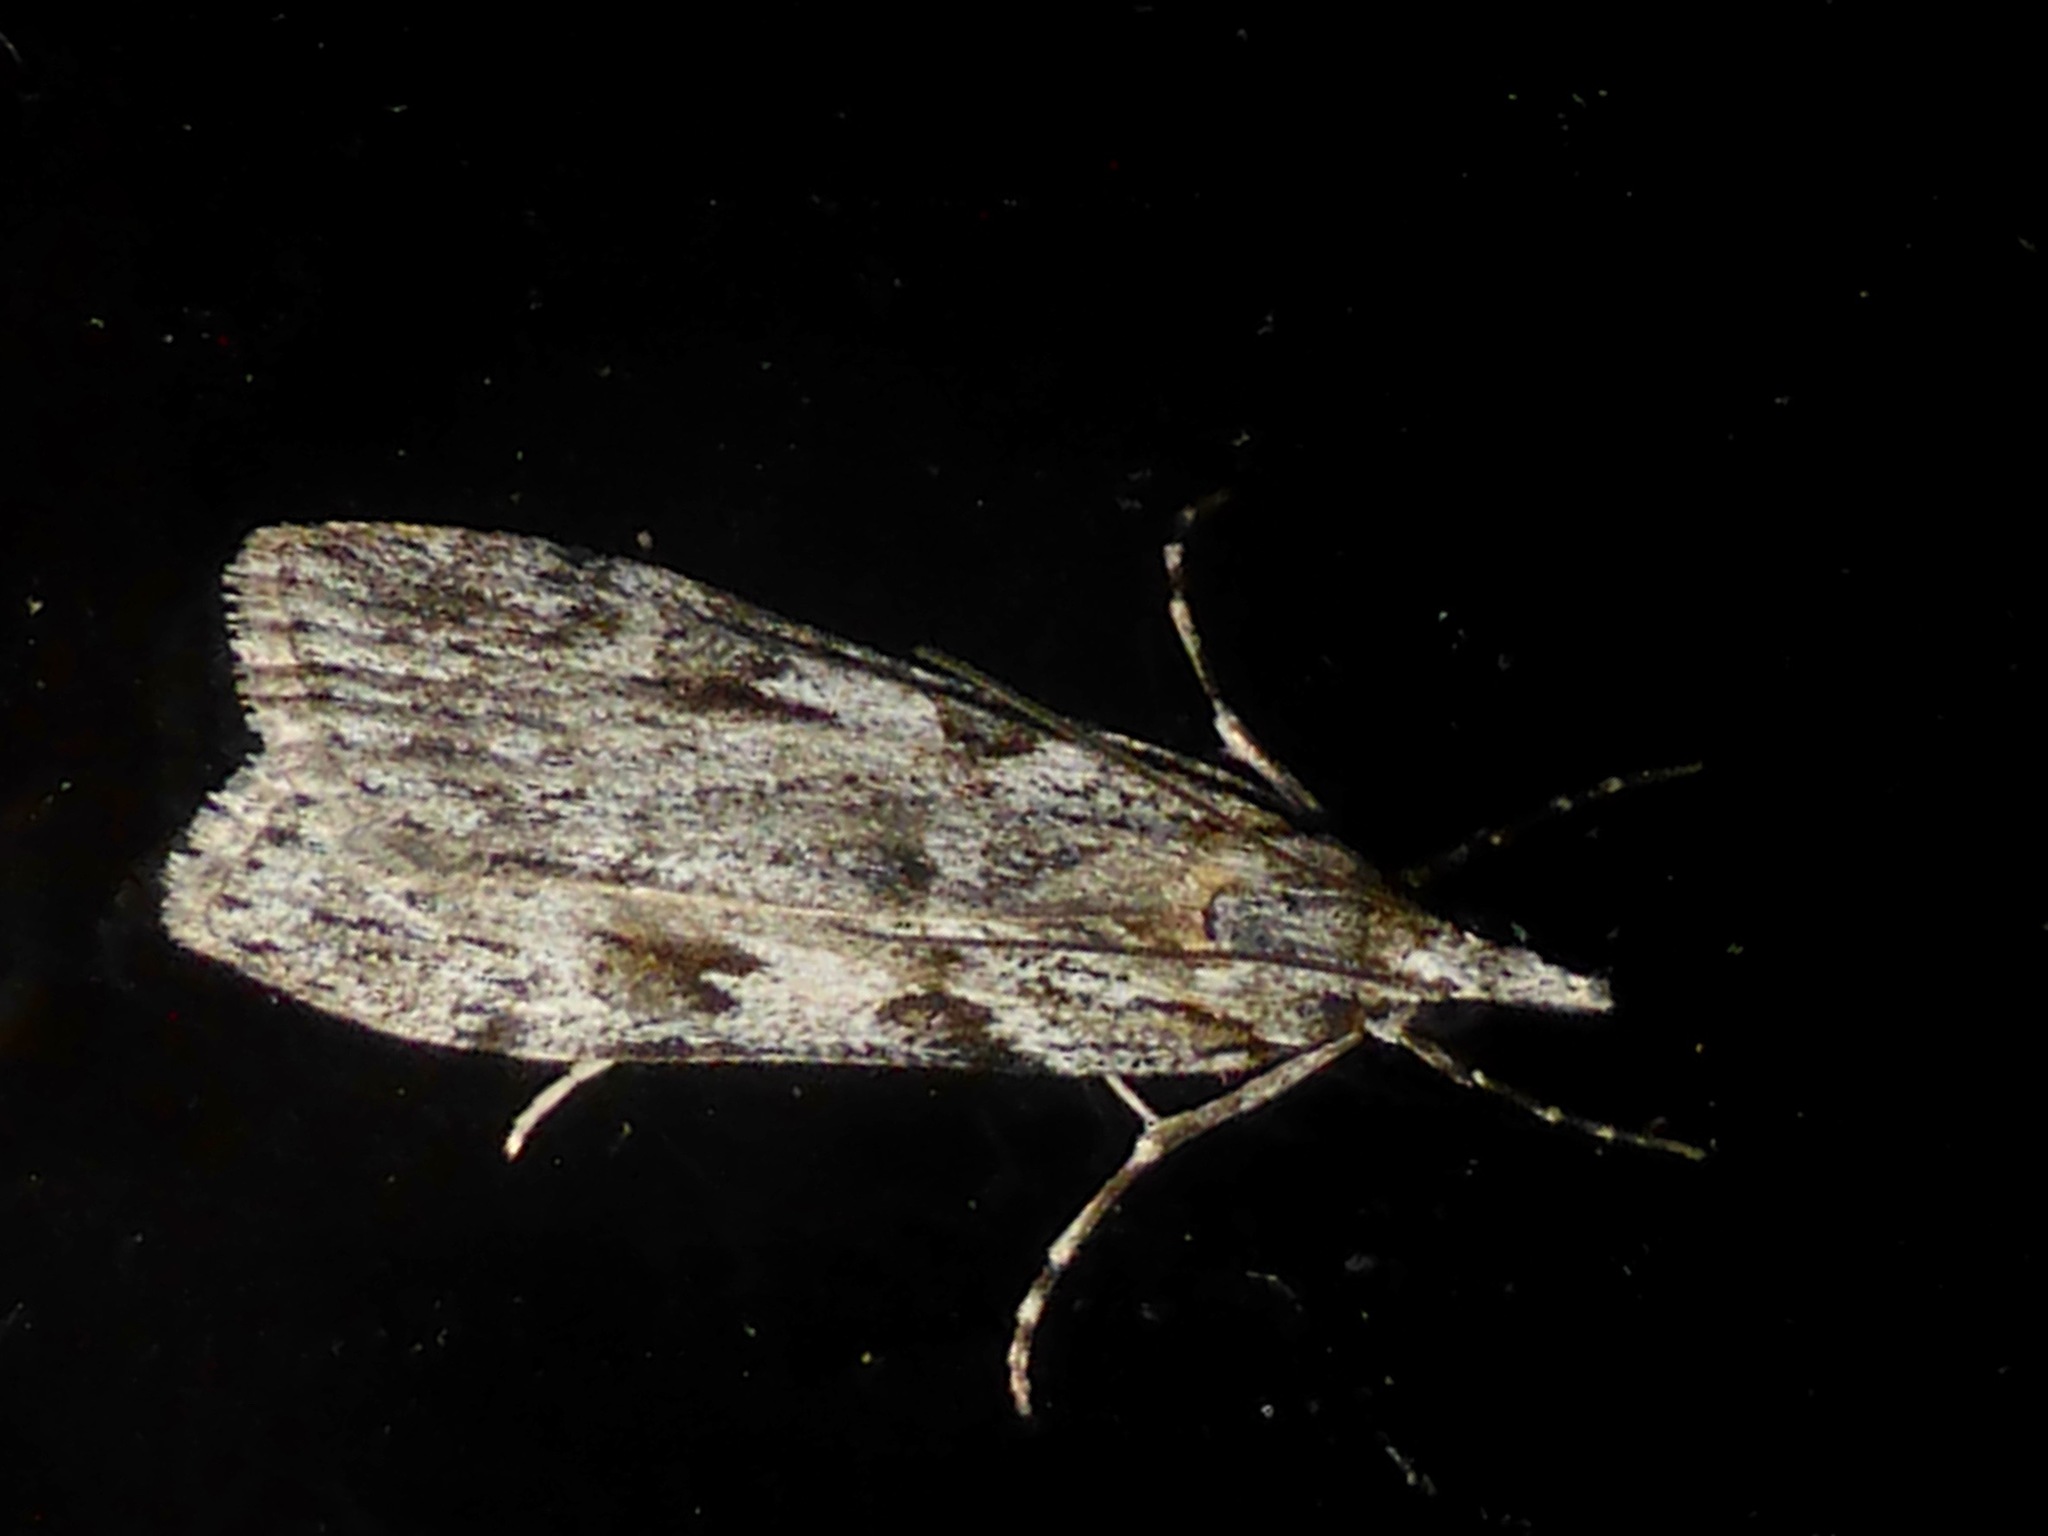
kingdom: Animalia
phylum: Arthropoda
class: Insecta
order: Lepidoptera
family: Crambidae
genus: Scoparia
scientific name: Scoparia halopis
